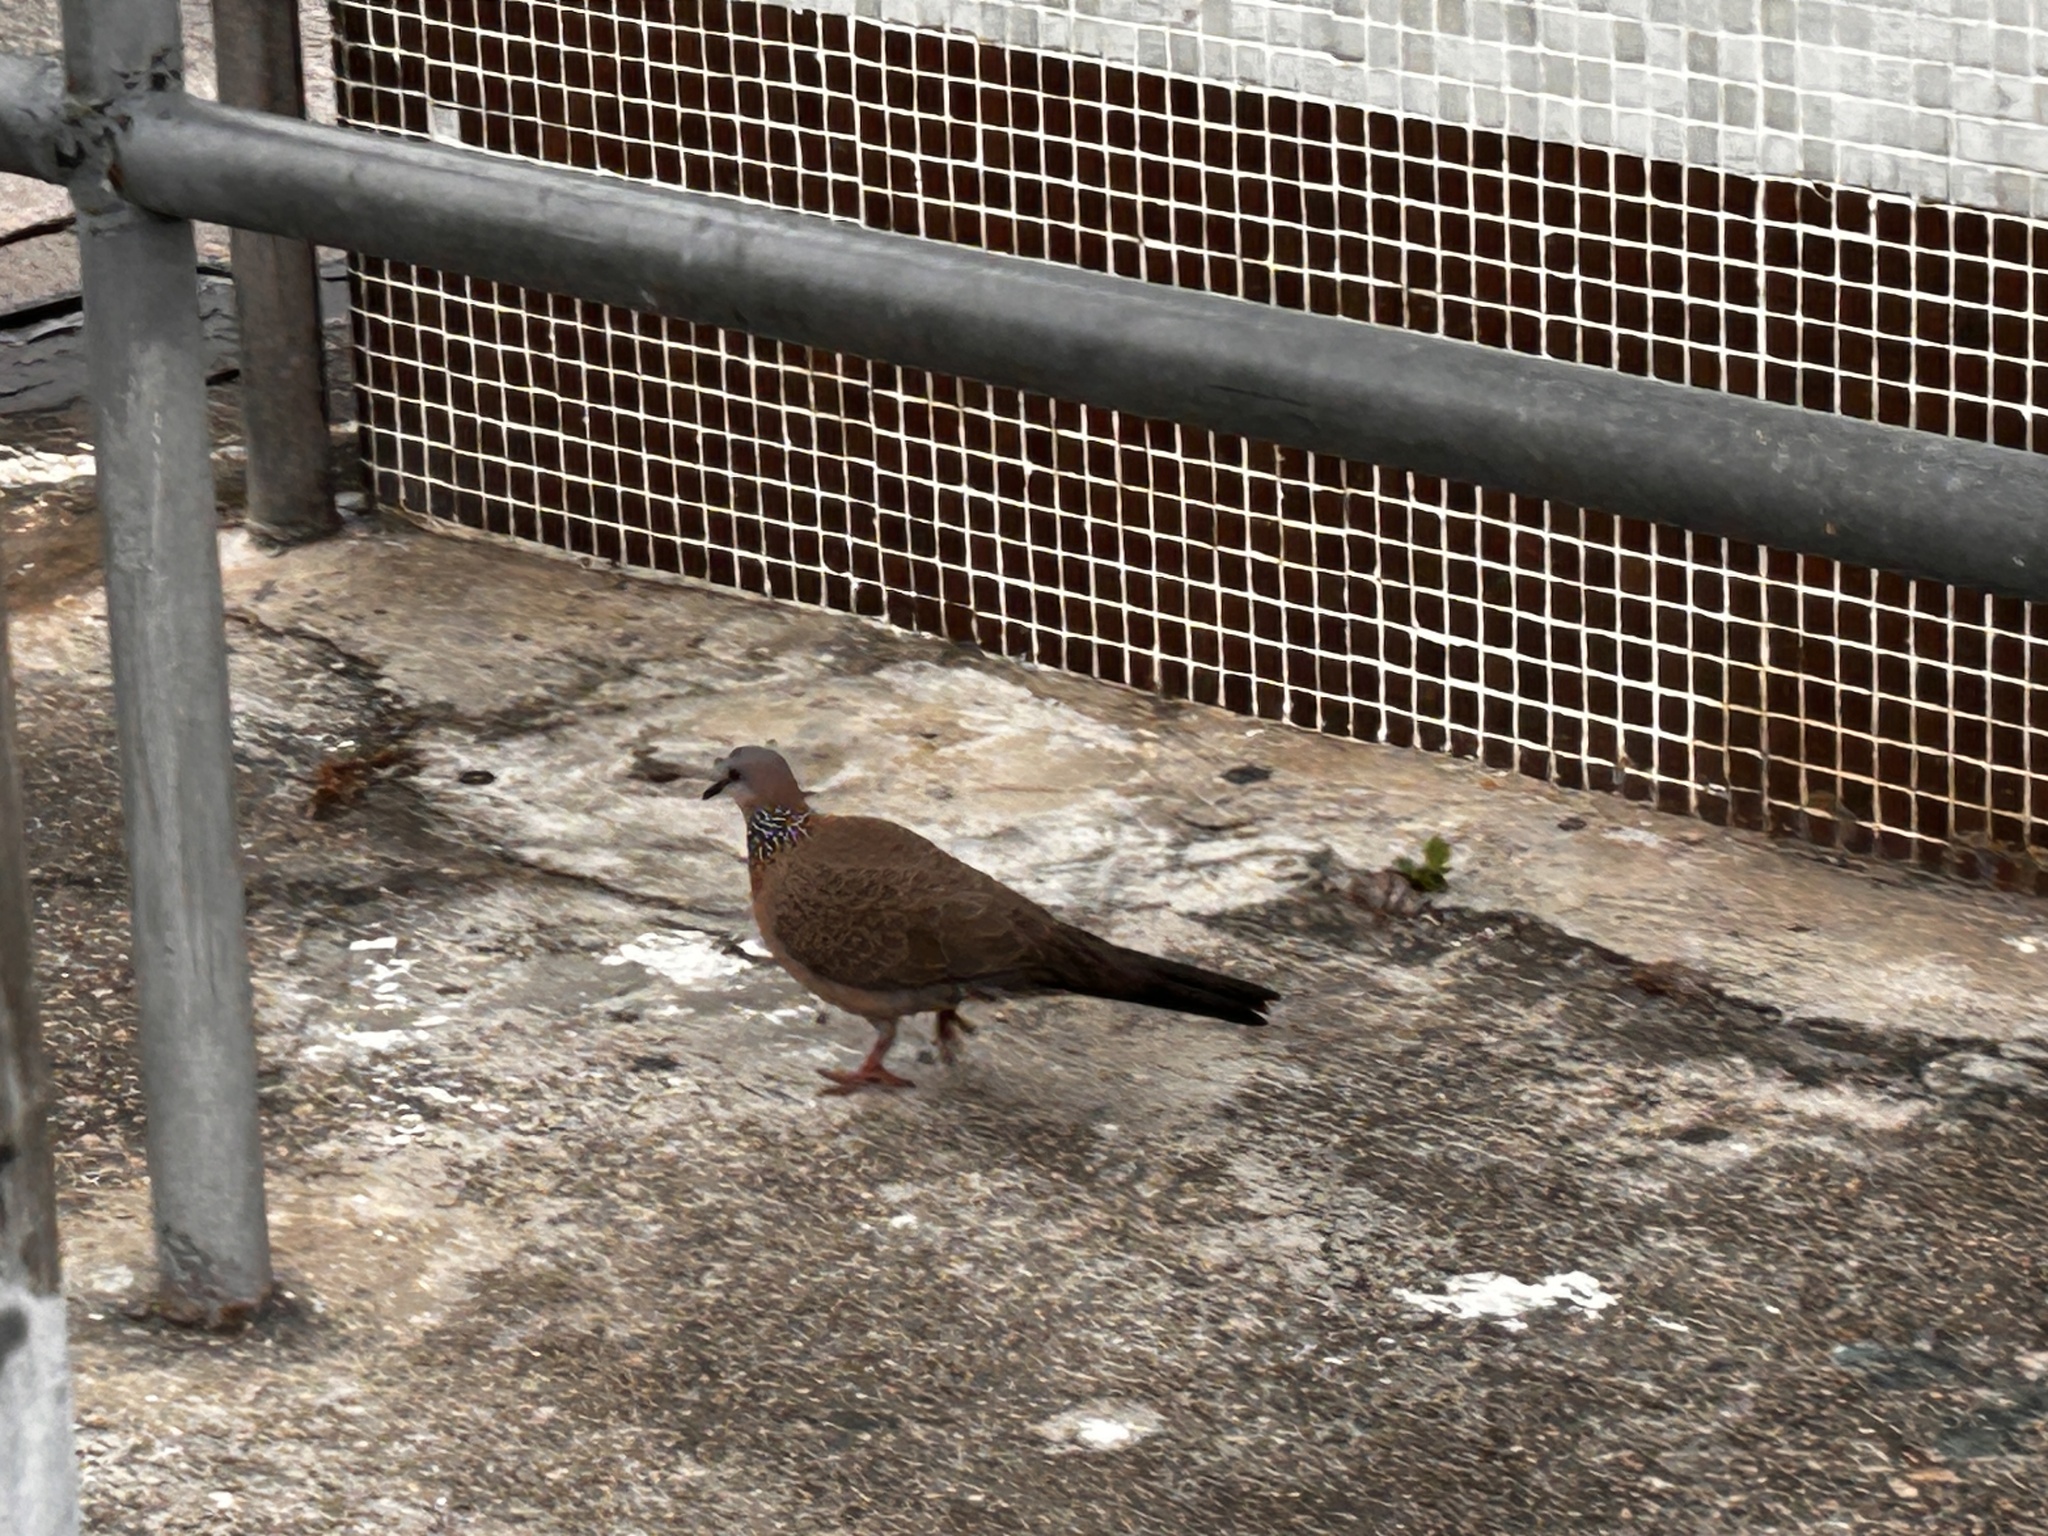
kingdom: Animalia
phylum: Chordata
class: Aves
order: Columbiformes
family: Columbidae
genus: Spilopelia
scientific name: Spilopelia chinensis
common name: Spotted dove
